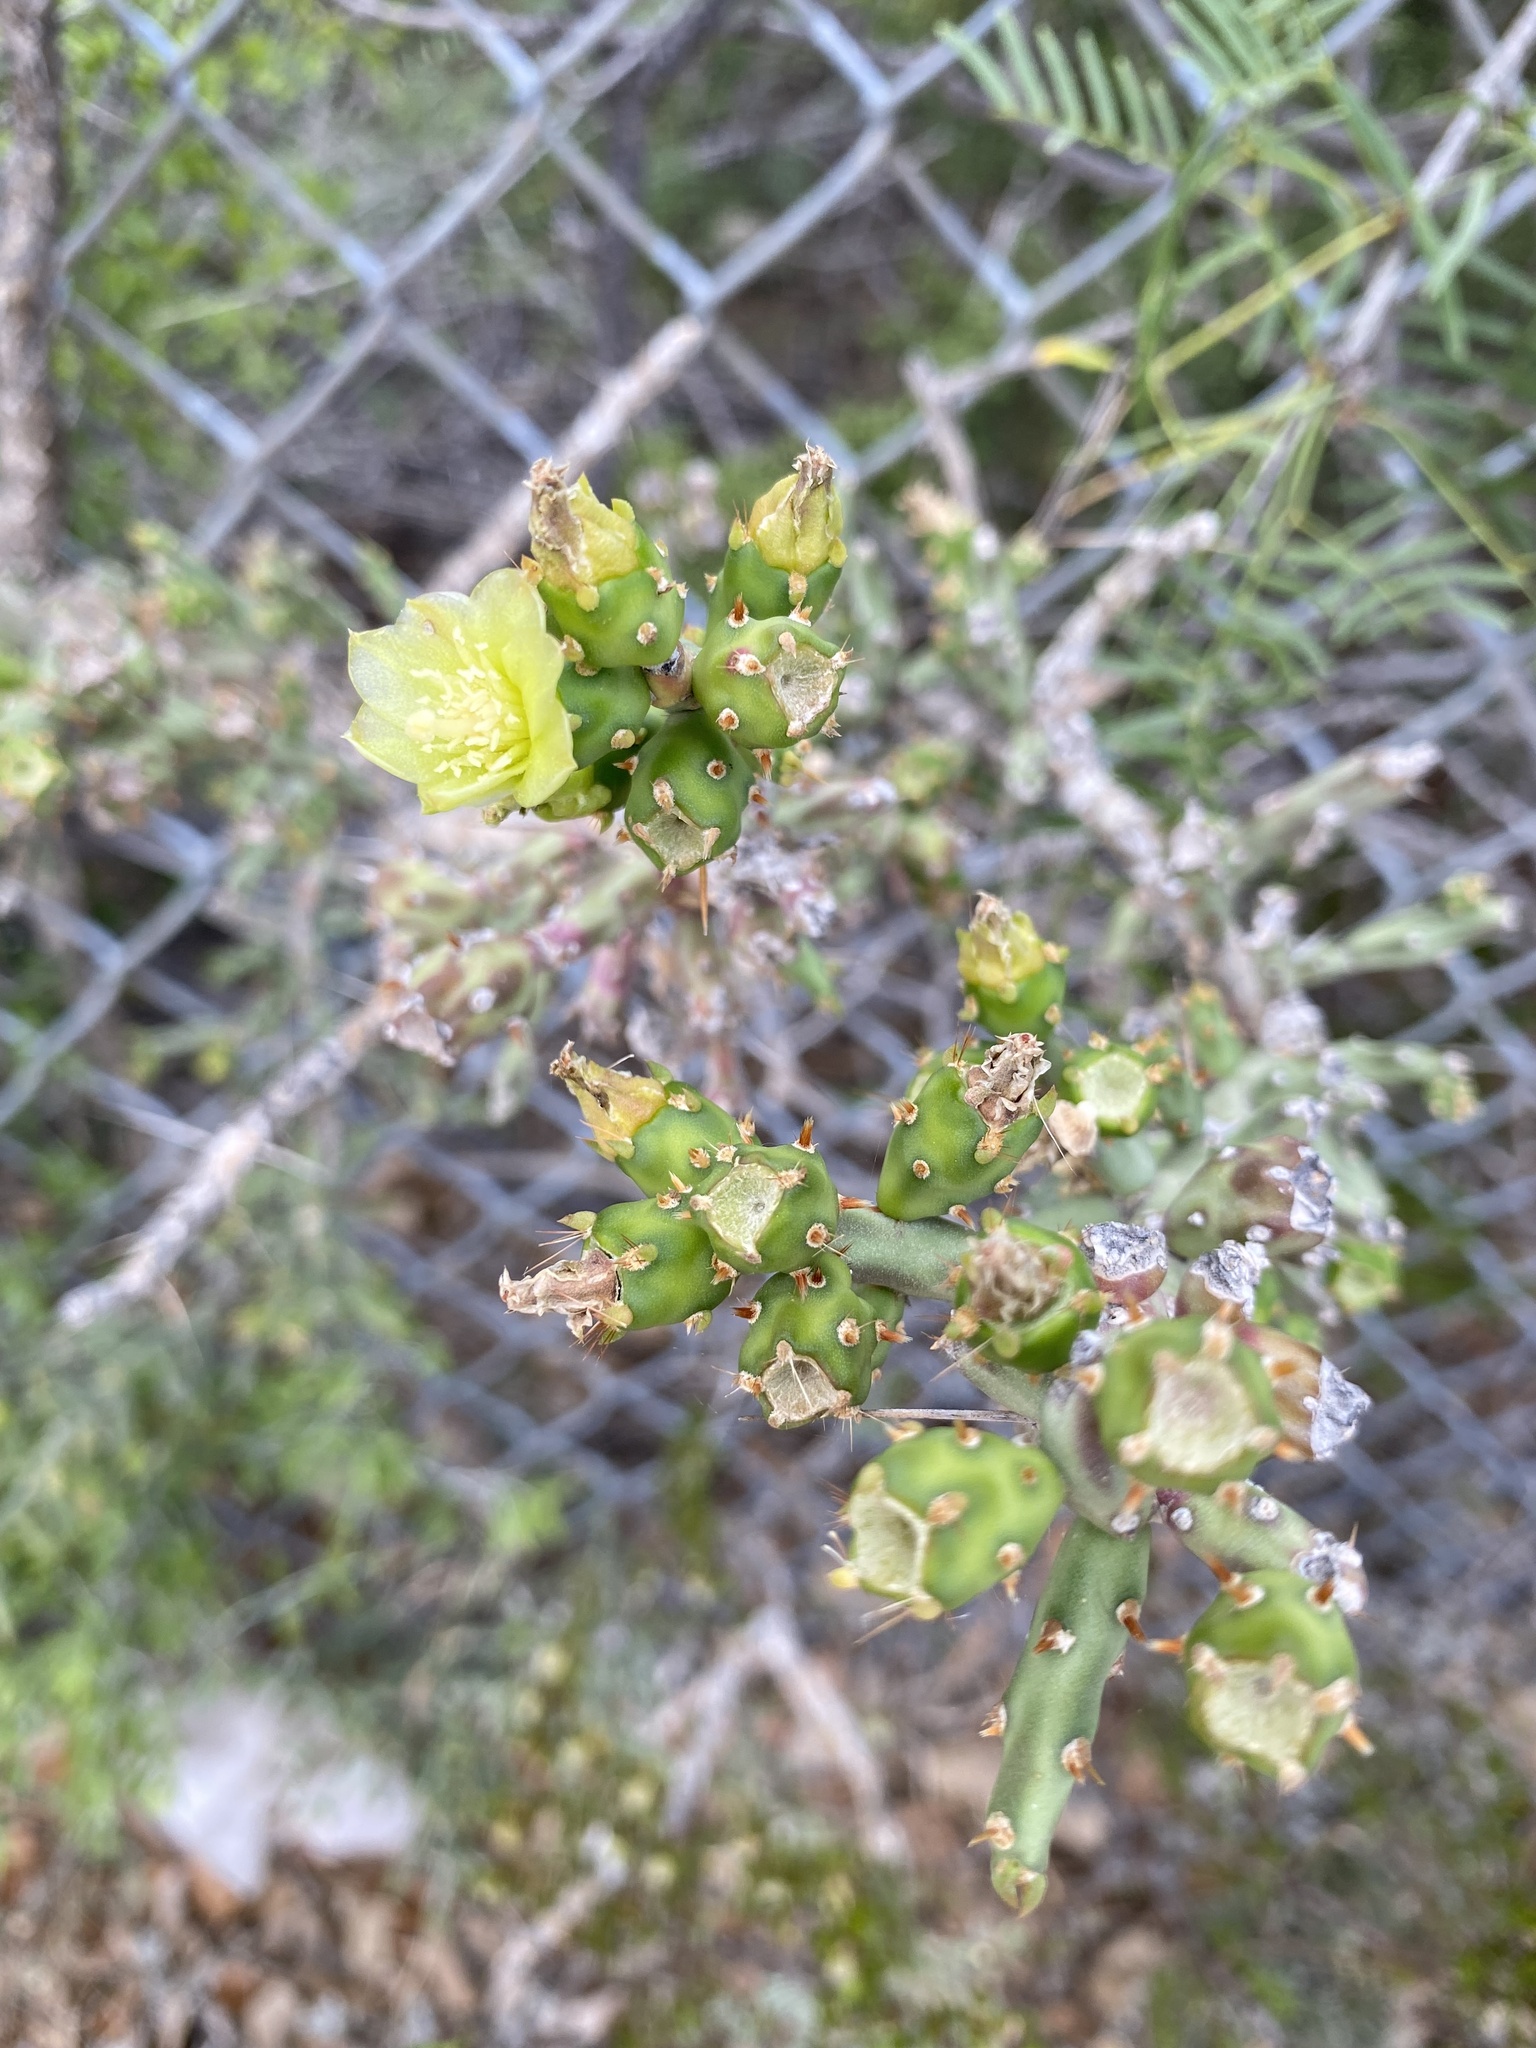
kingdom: Plantae
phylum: Tracheophyta
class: Magnoliopsida
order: Caryophyllales
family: Cactaceae
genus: Cylindropuntia
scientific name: Cylindropuntia leptocaulis
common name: Christmas cactus
